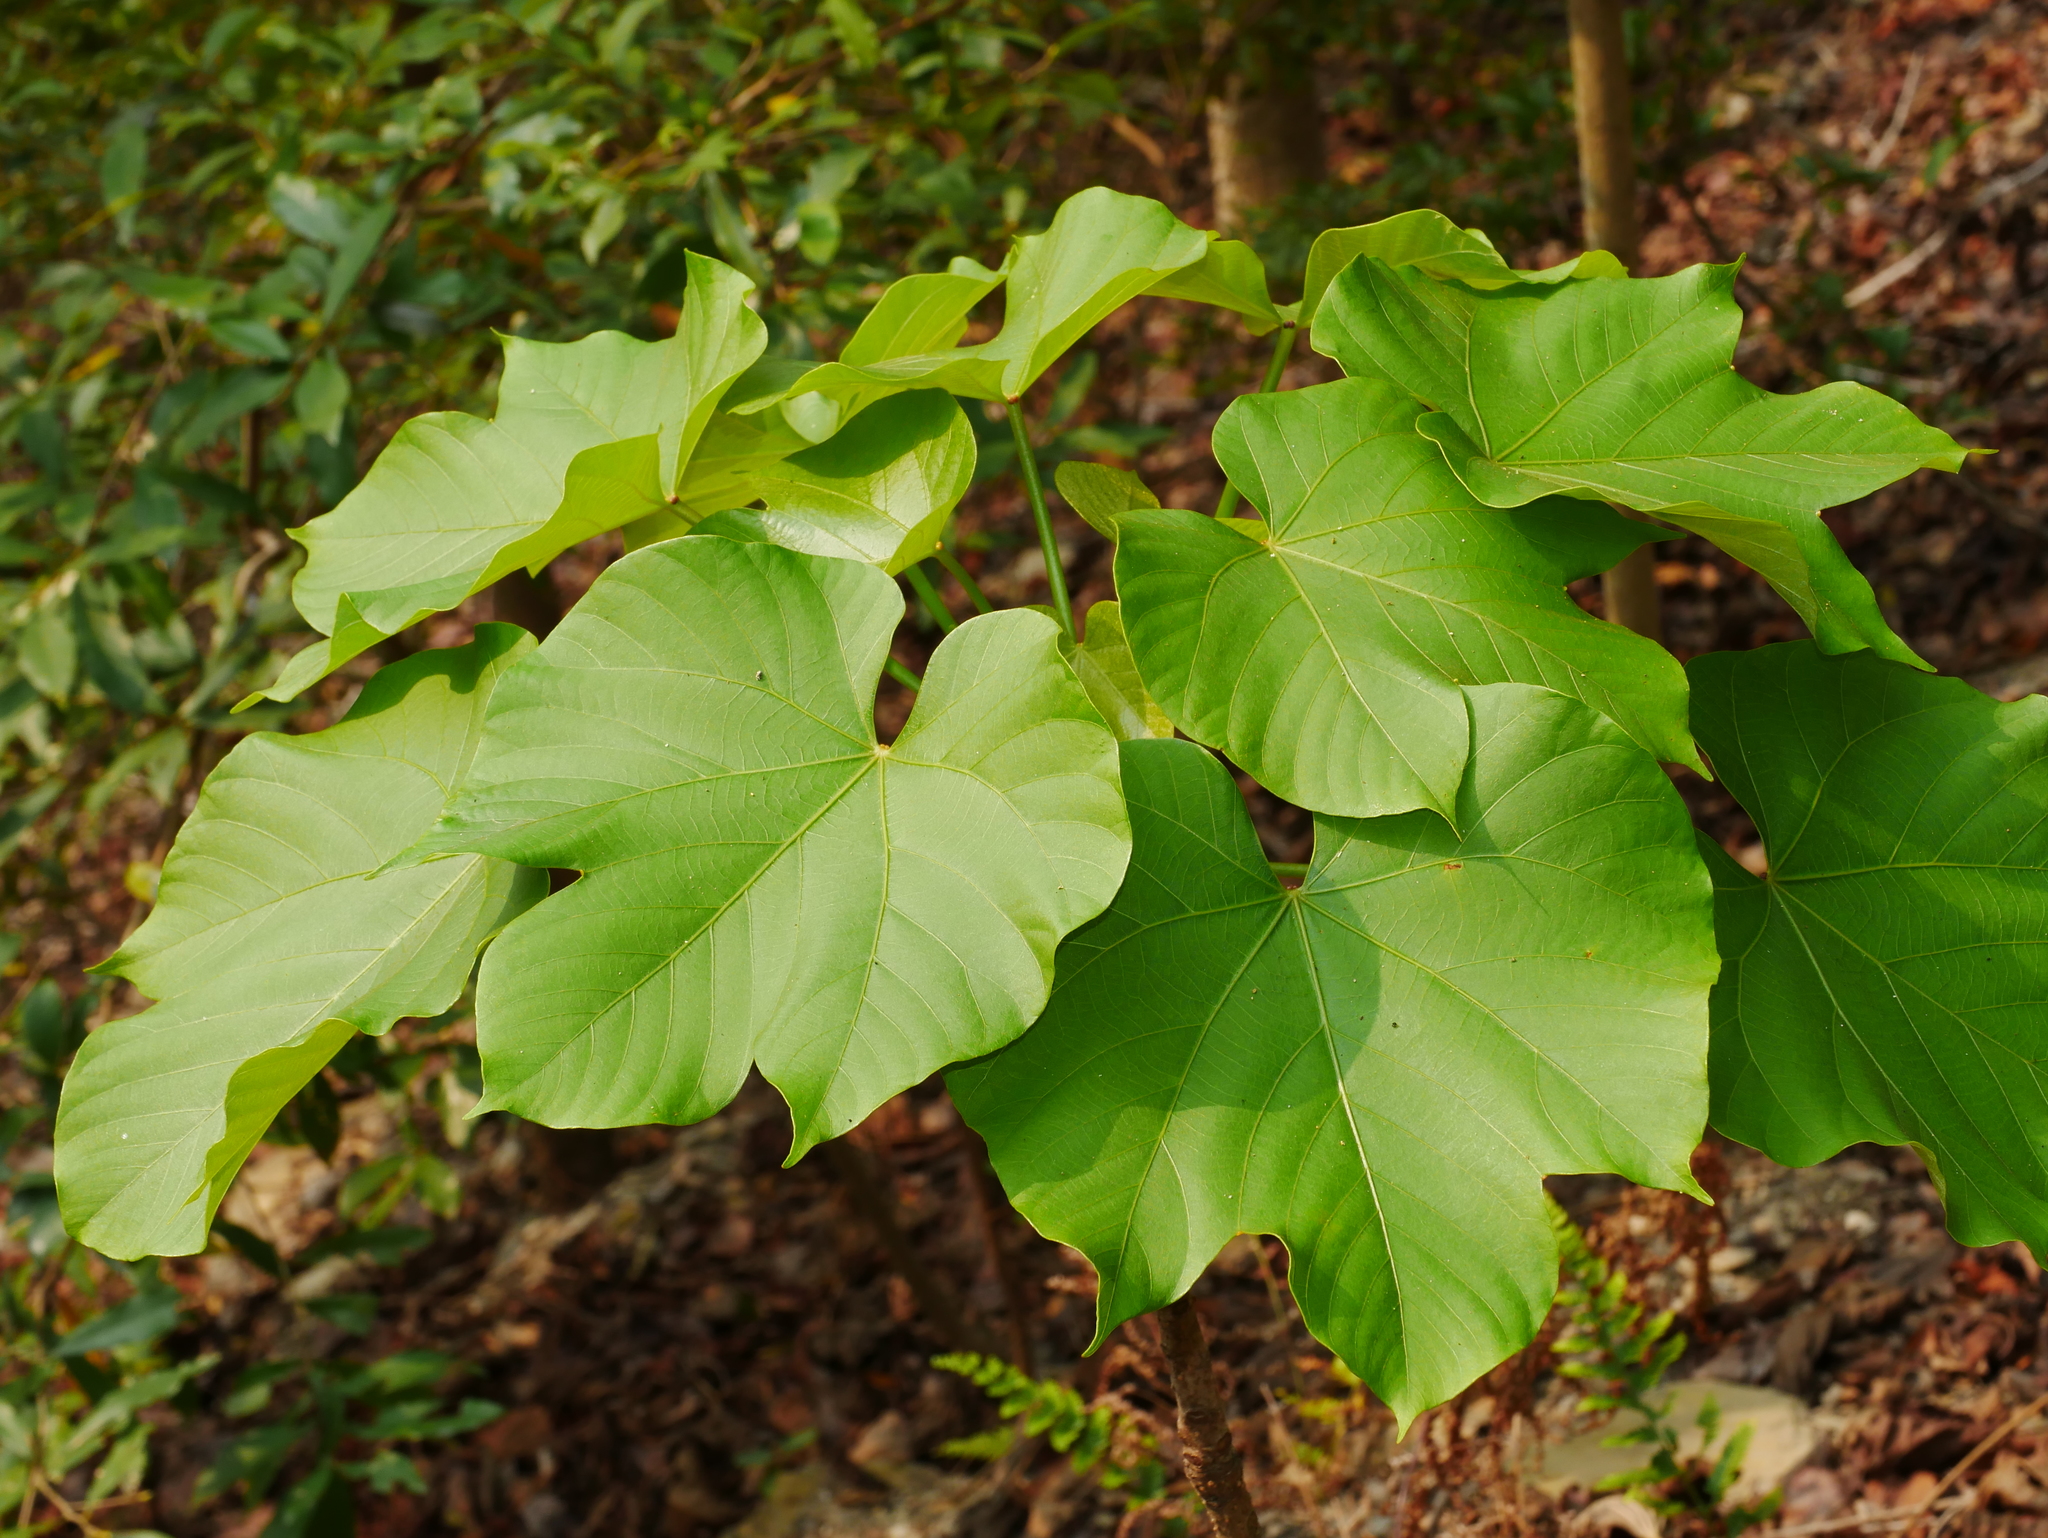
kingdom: Plantae
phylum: Tracheophyta
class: Magnoliopsida
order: Malpighiales
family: Euphorbiaceae
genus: Vernicia
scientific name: Vernicia fordii
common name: Tungoil tree
